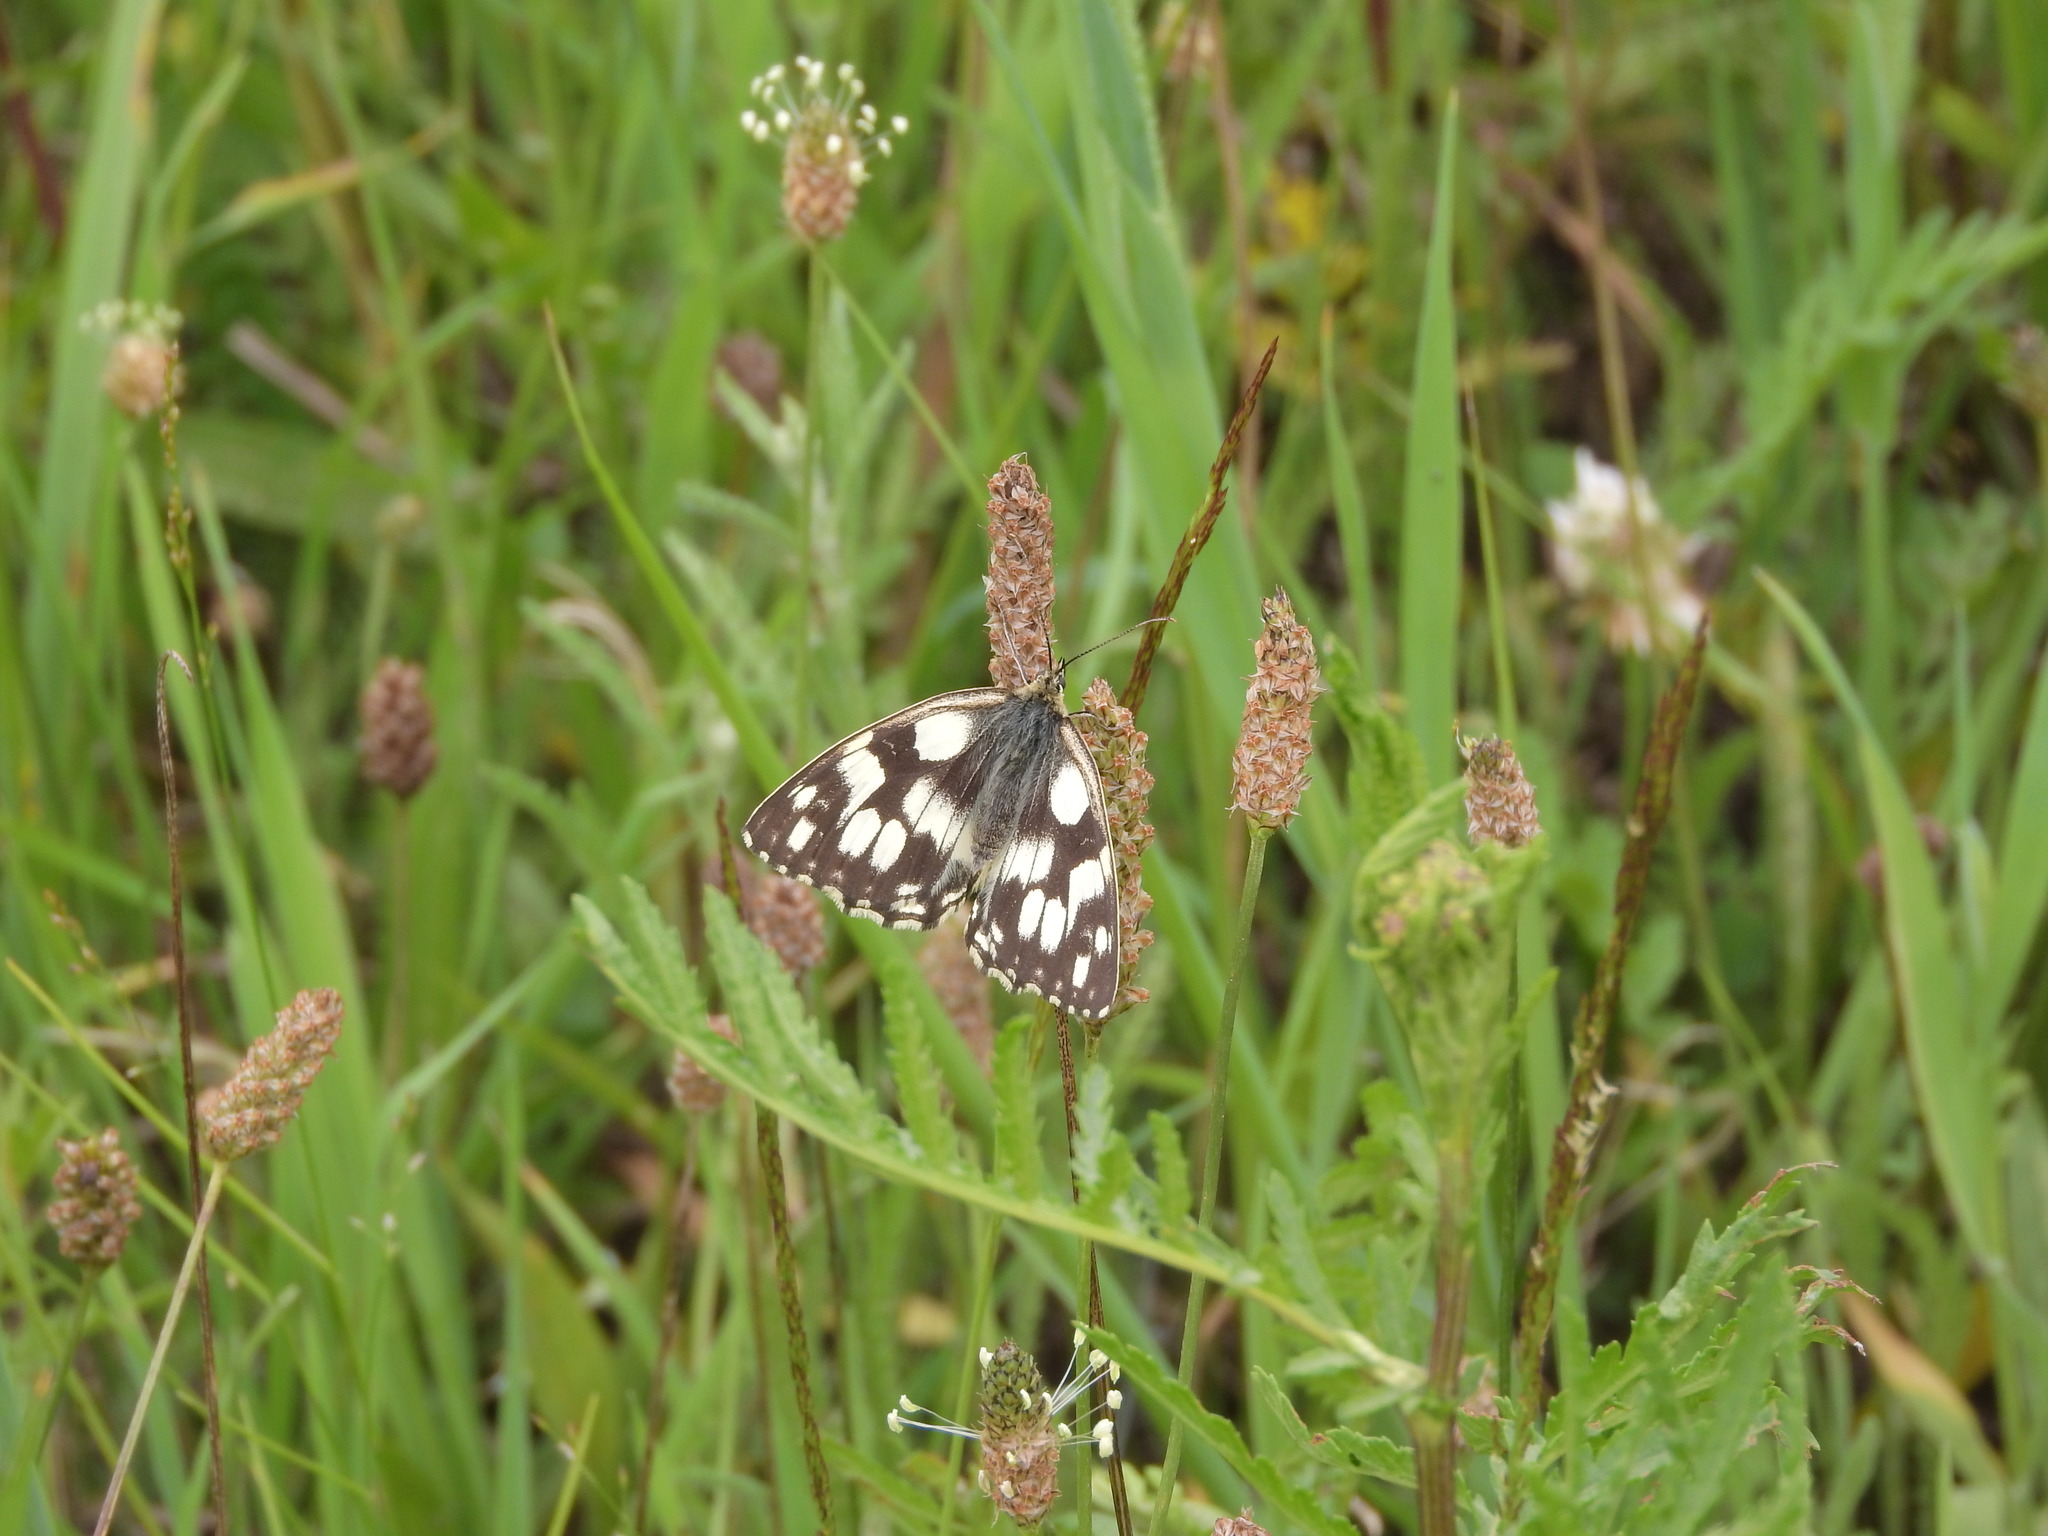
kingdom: Animalia
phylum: Arthropoda
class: Insecta
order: Lepidoptera
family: Nymphalidae
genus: Melanargia
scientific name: Melanargia galathea
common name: Marbled white
